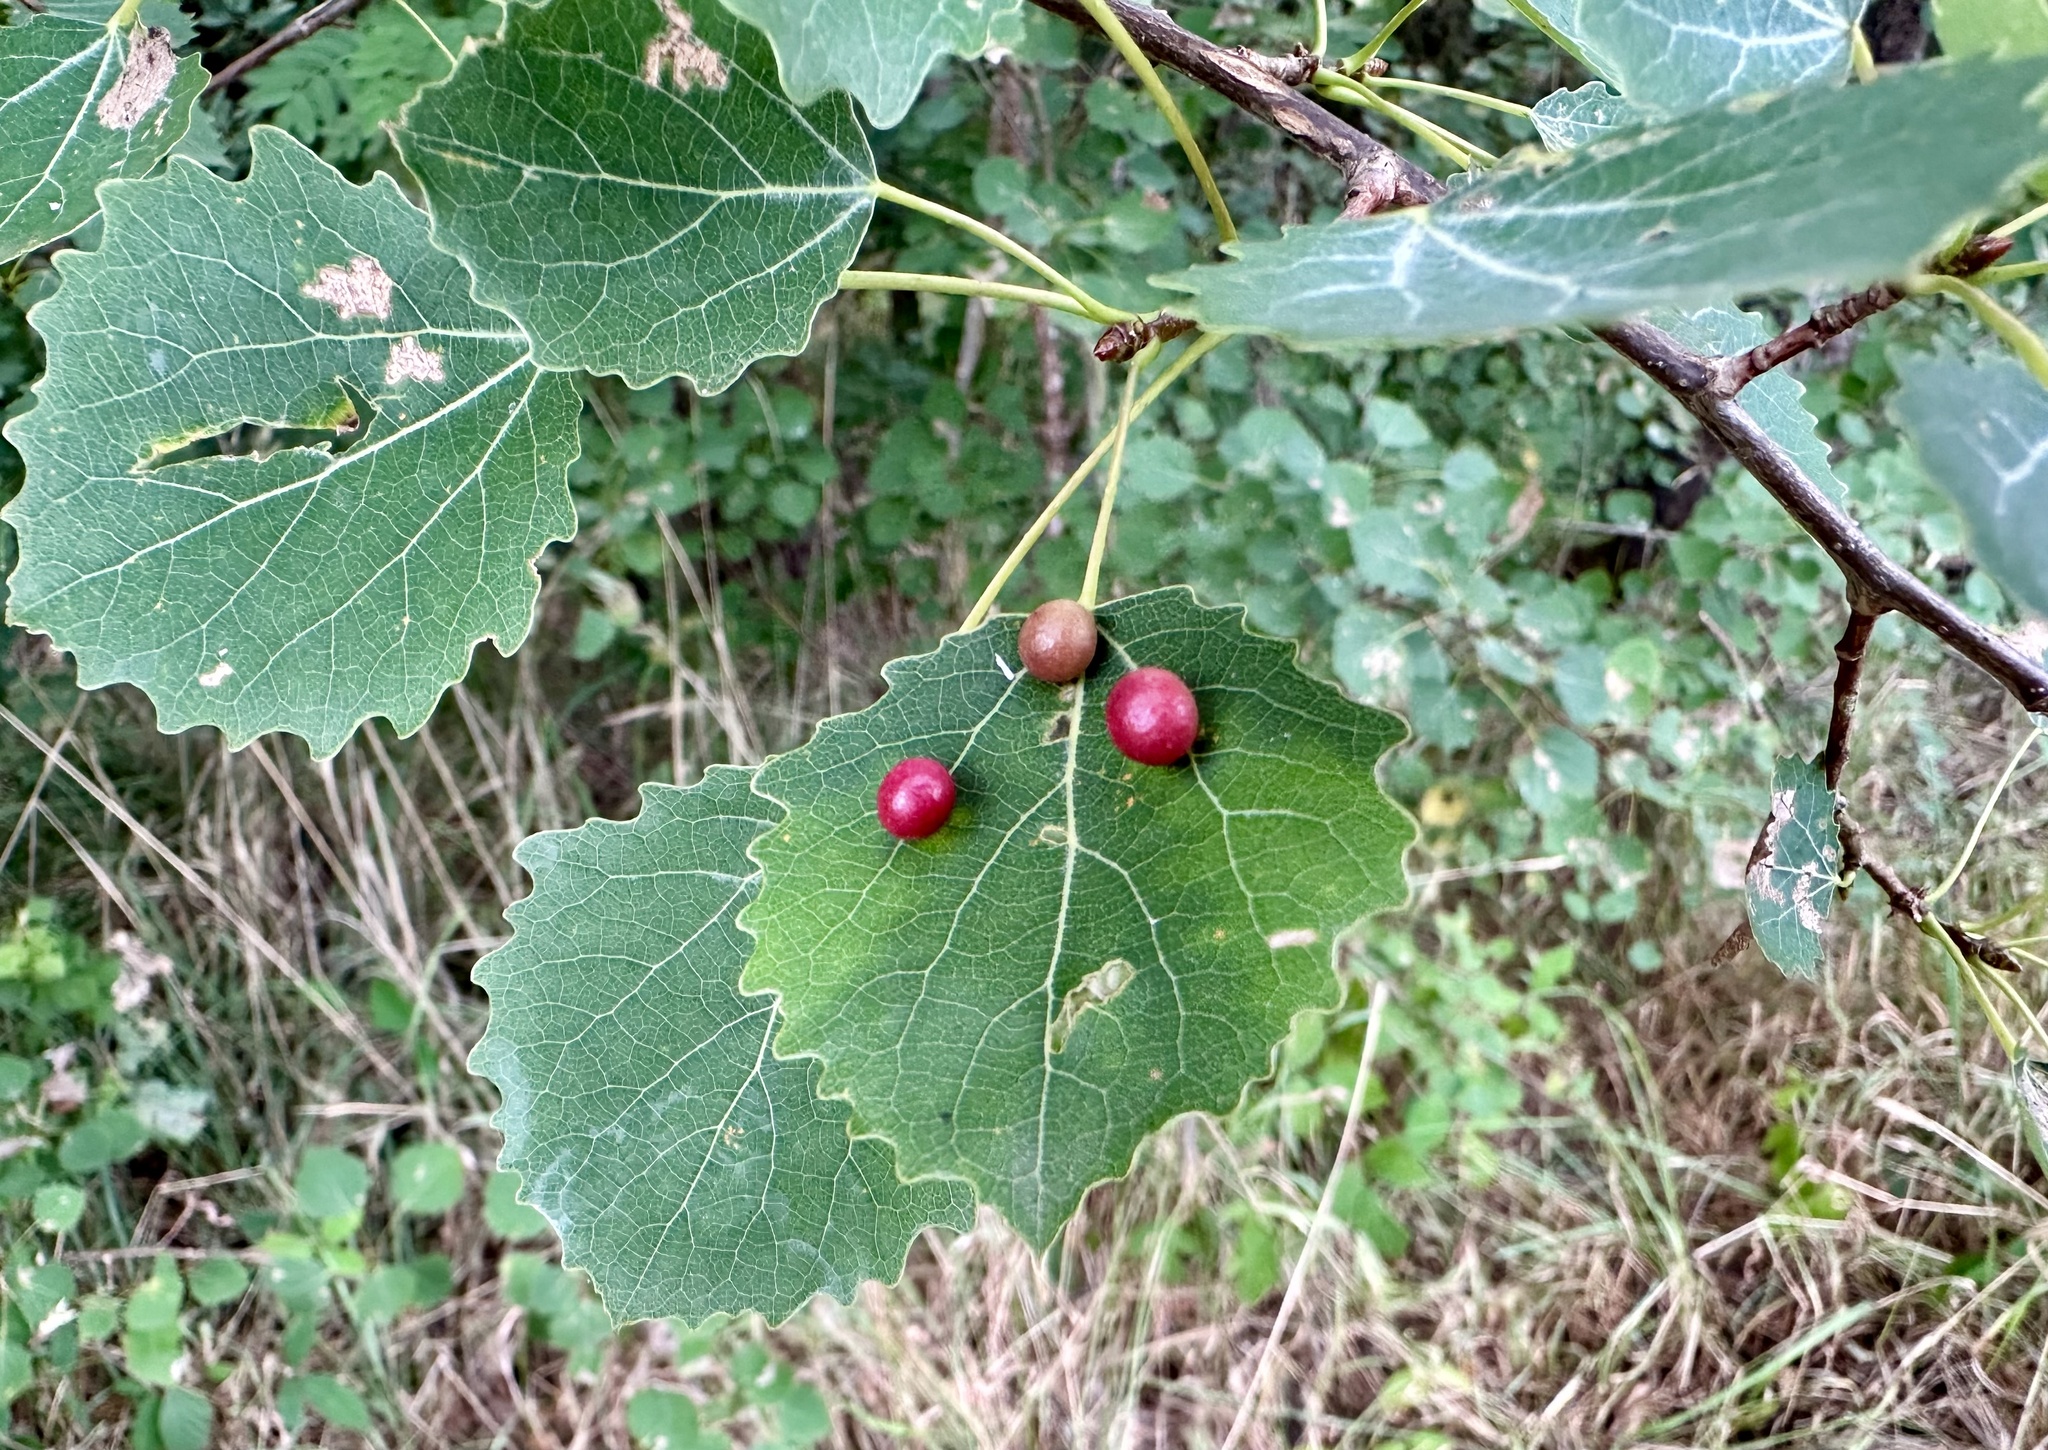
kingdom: Animalia
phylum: Arthropoda
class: Insecta
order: Diptera
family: Cecidomyiidae
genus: Harmandiola
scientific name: Harmandiola tremulae
